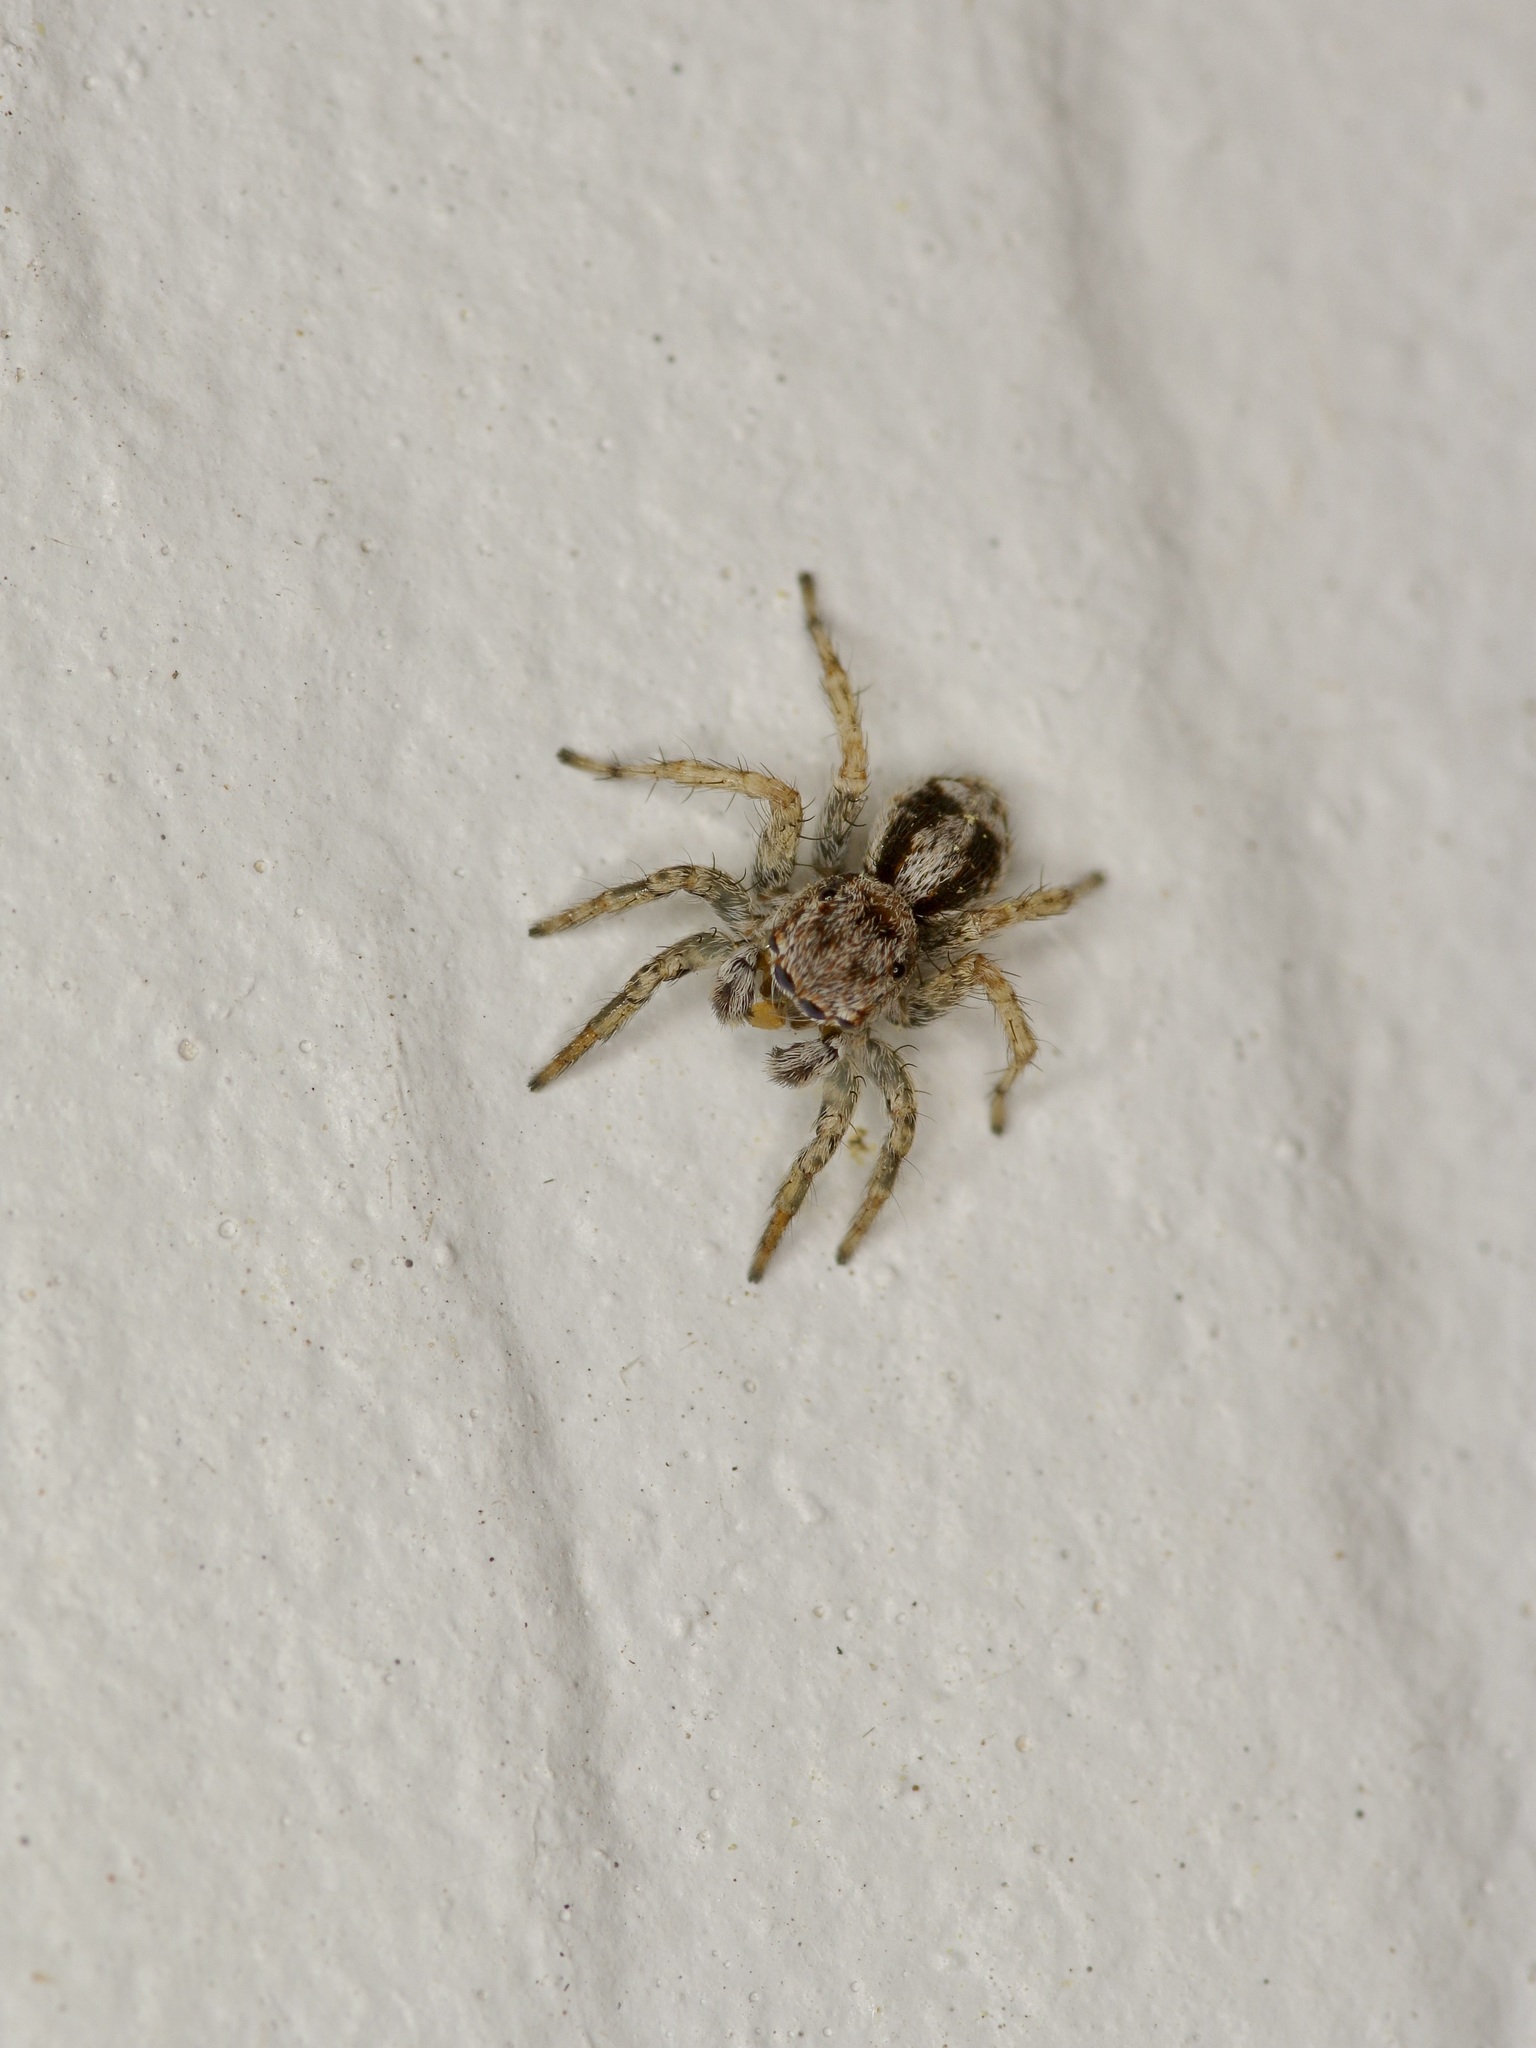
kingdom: Animalia
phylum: Arthropoda
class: Arachnida
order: Araneae
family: Salticidae
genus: Naphrys
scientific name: Naphrys pulex
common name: Flea jumping spider
